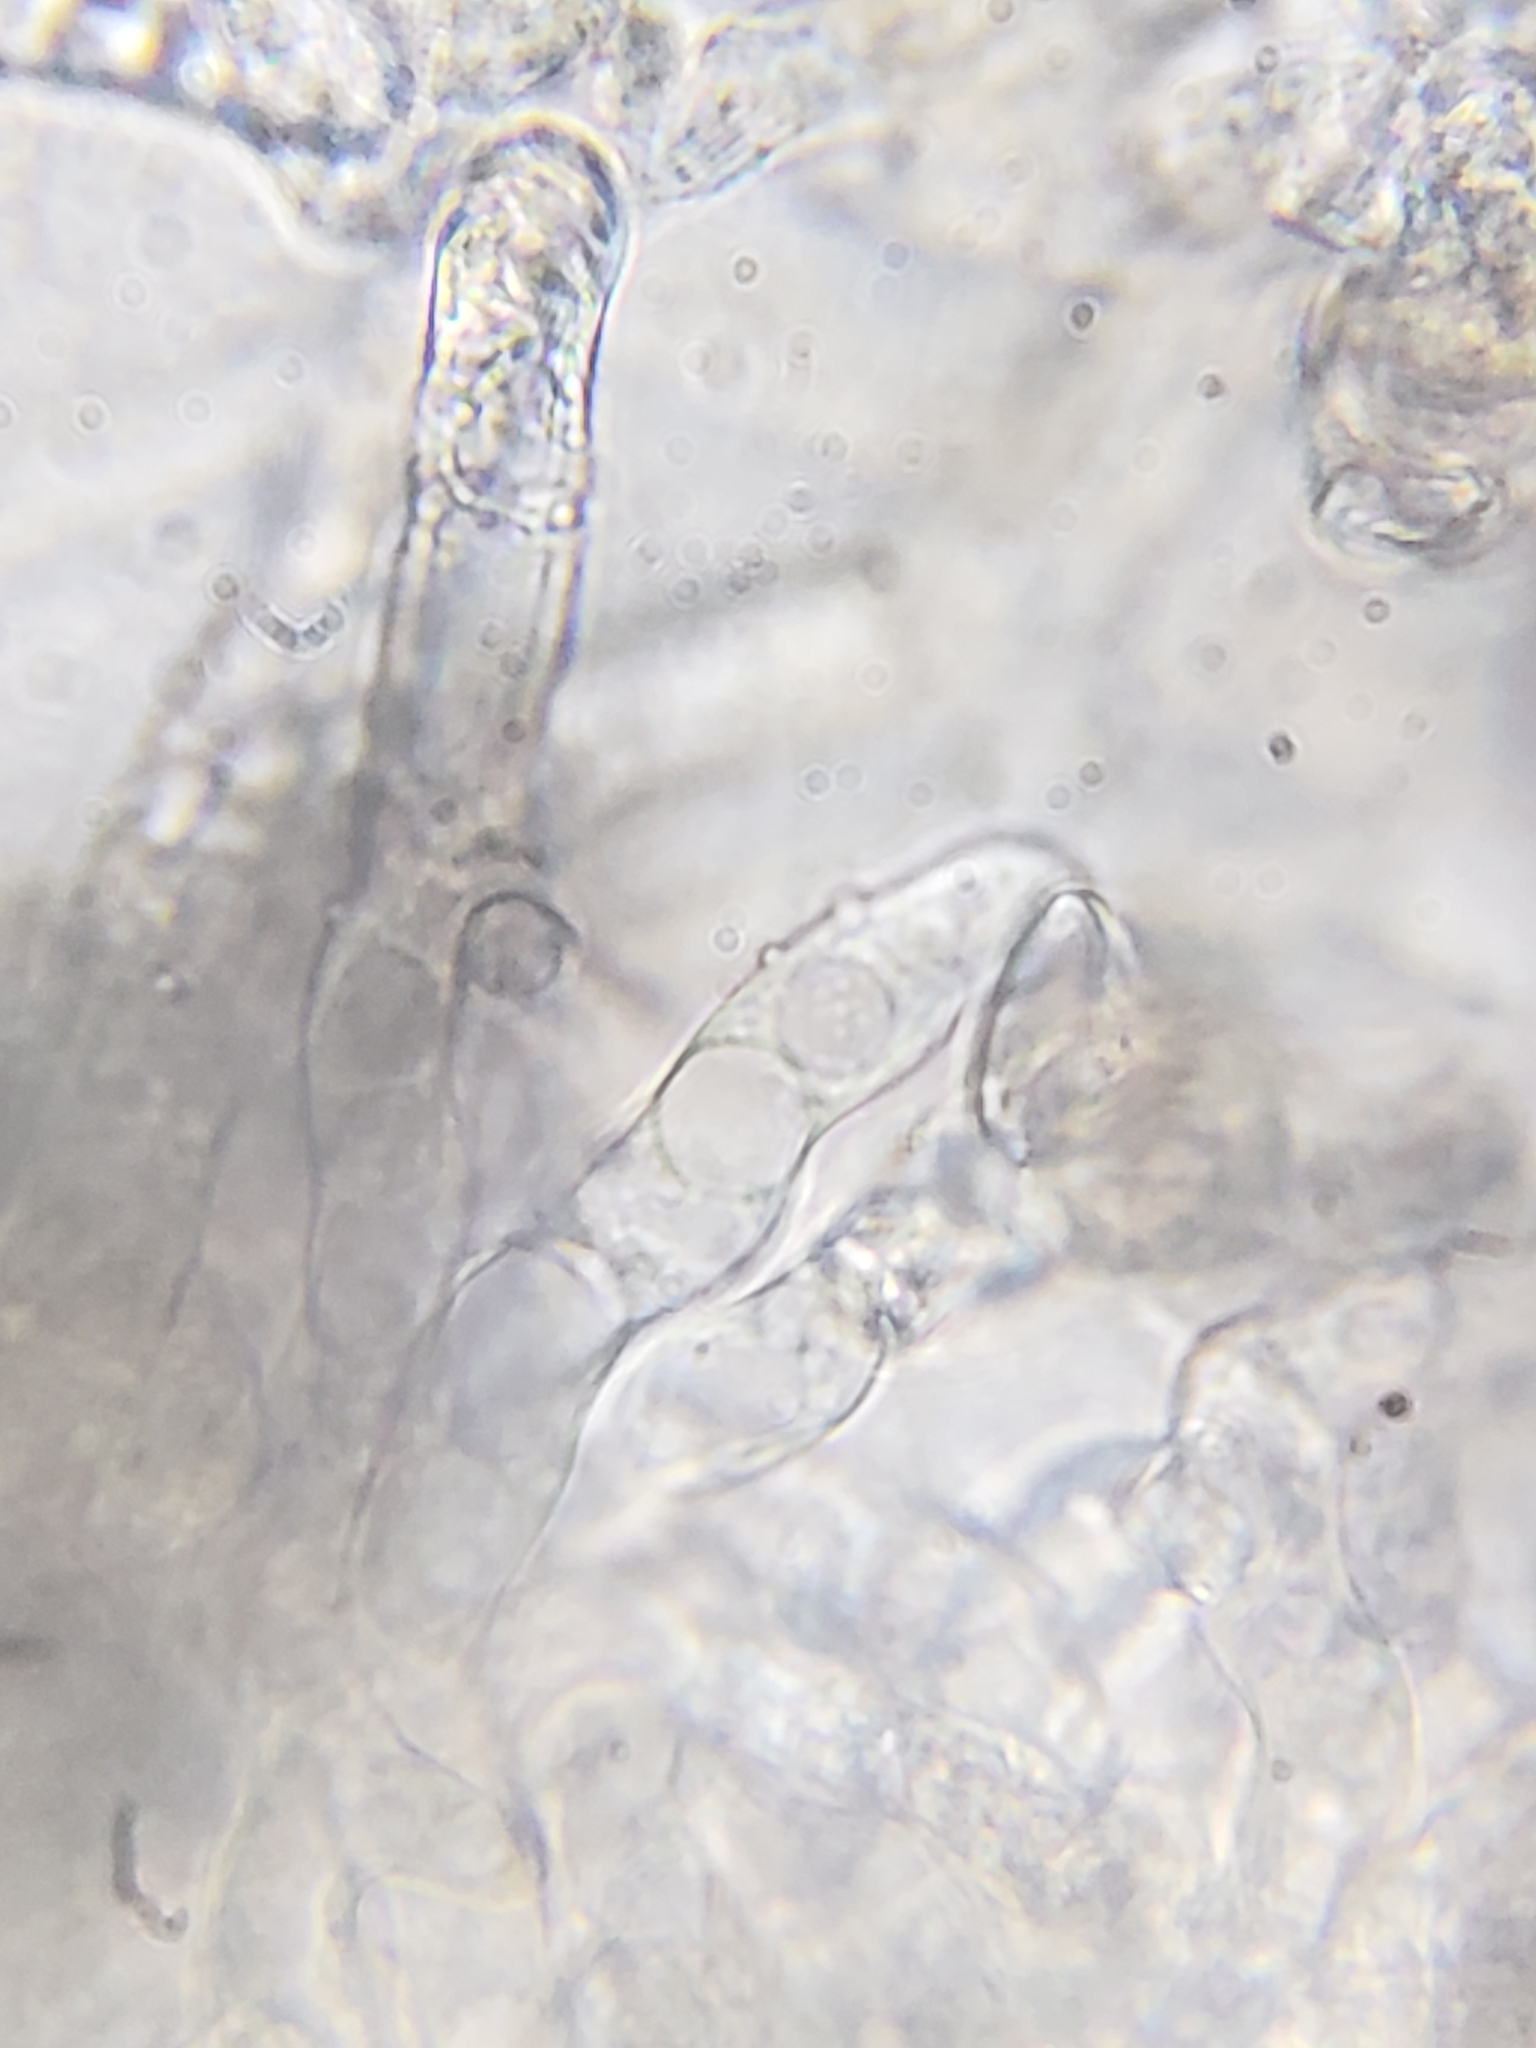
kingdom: Fungi
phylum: Ascomycota
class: Sordariomycetes
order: Hypocreales
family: Hypocreaceae
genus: Hypomyces
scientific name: Hypomyces polyporinus
